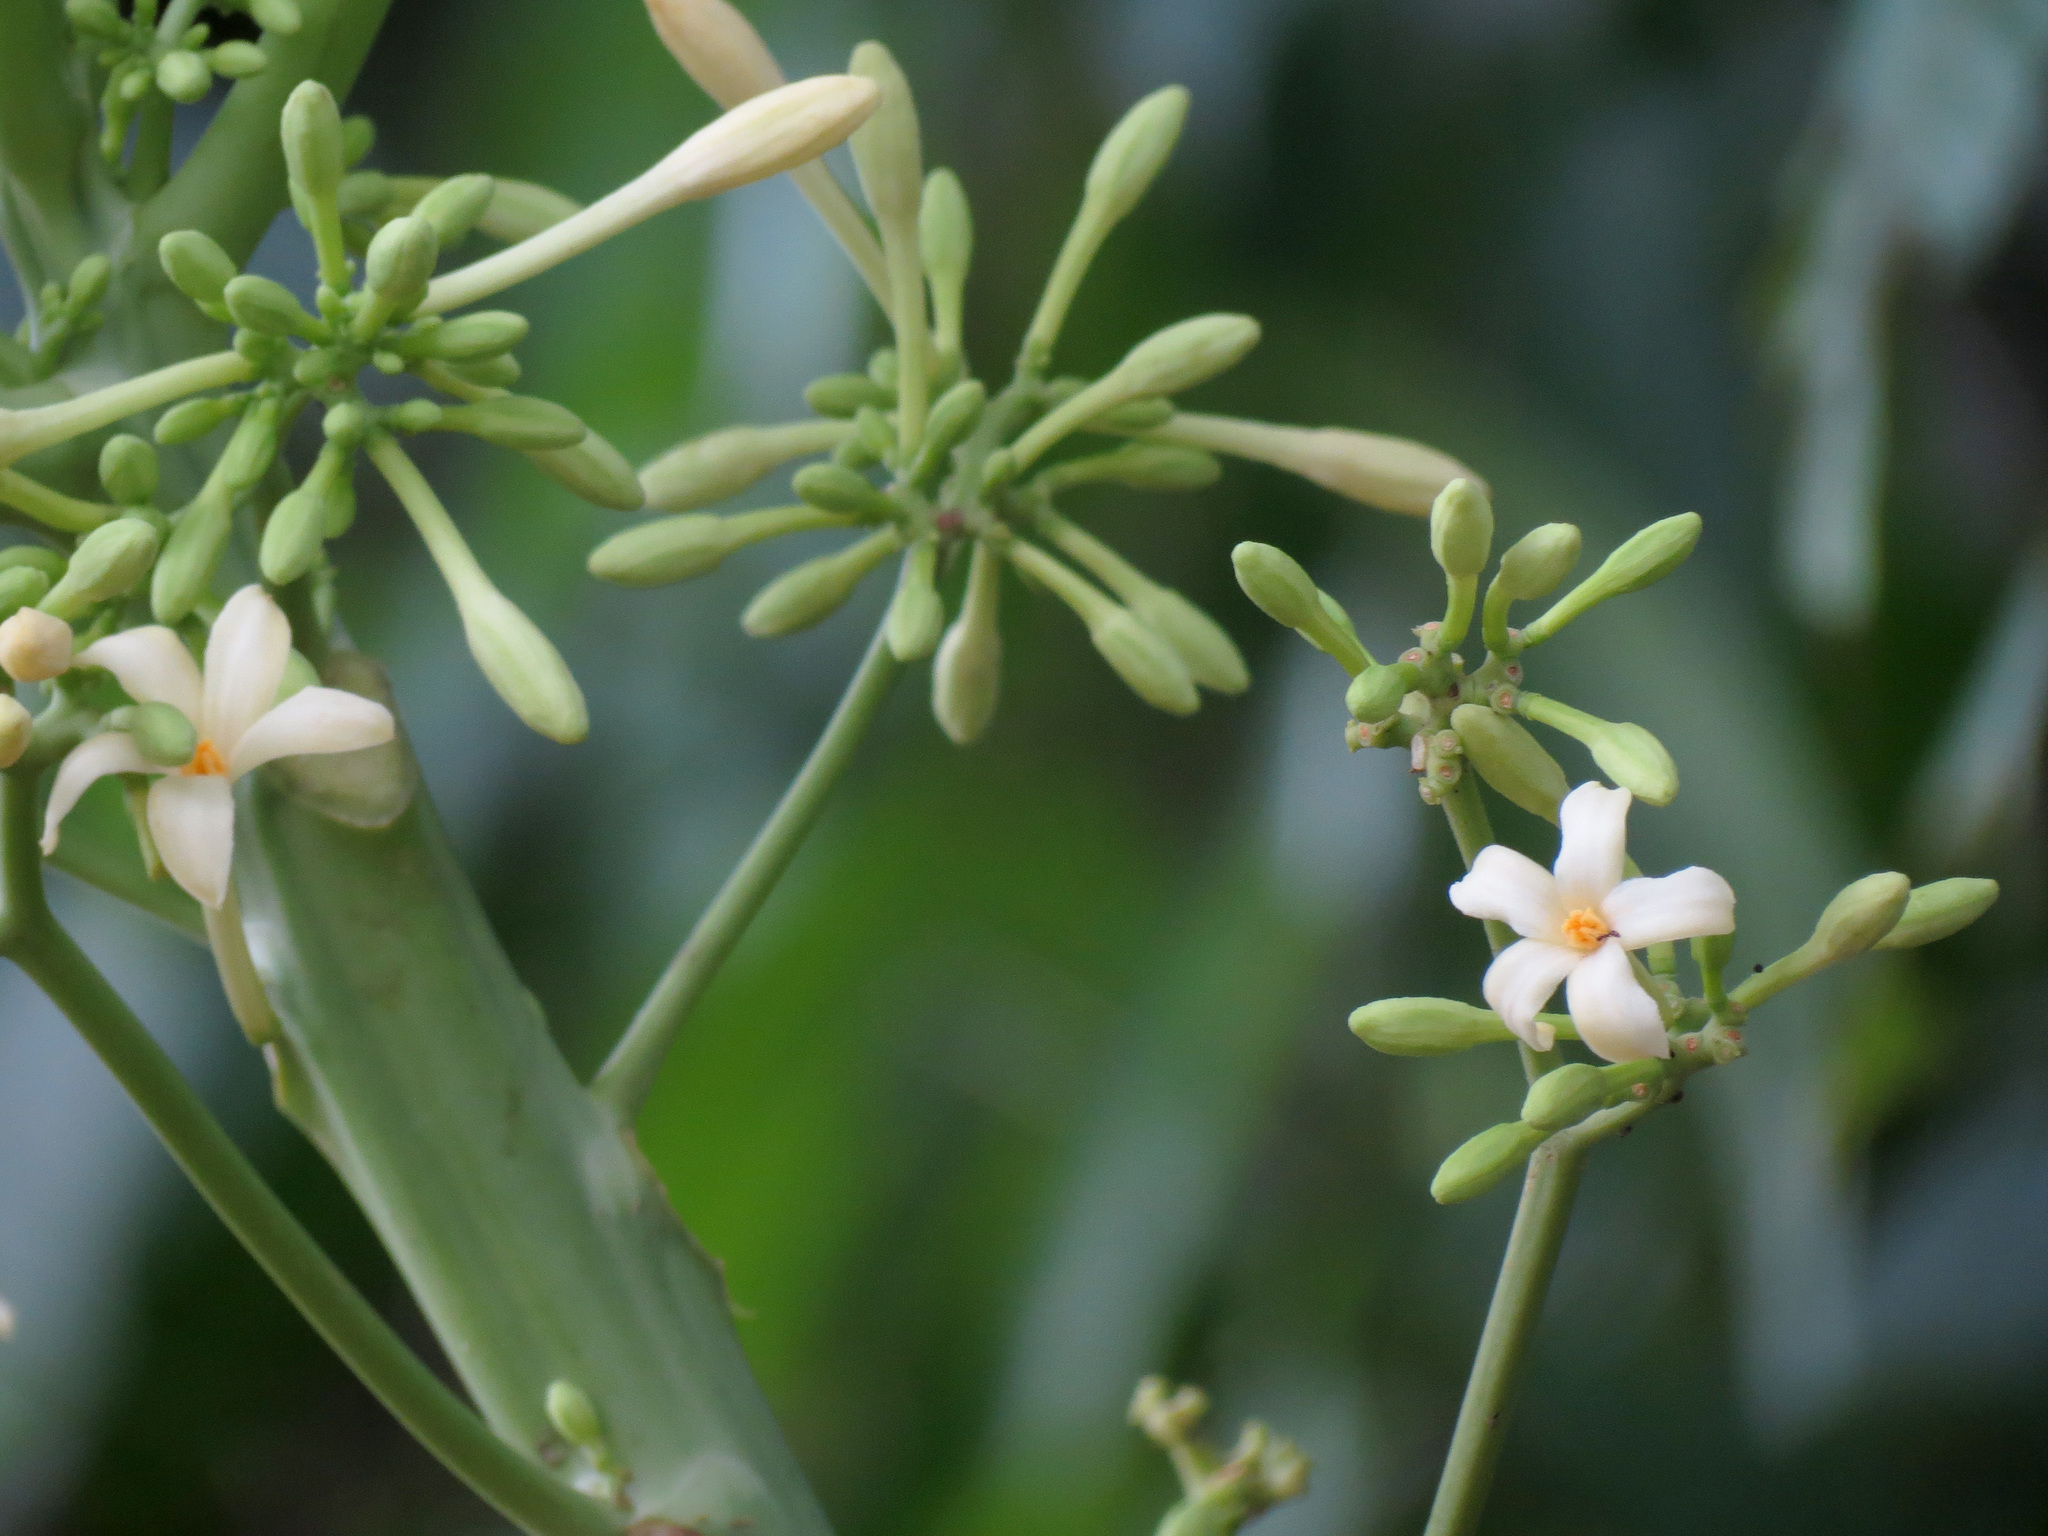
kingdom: Plantae
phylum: Tracheophyta
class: Magnoliopsida
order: Brassicales
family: Caricaceae
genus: Carica
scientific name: Carica papaya
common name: Papaya
